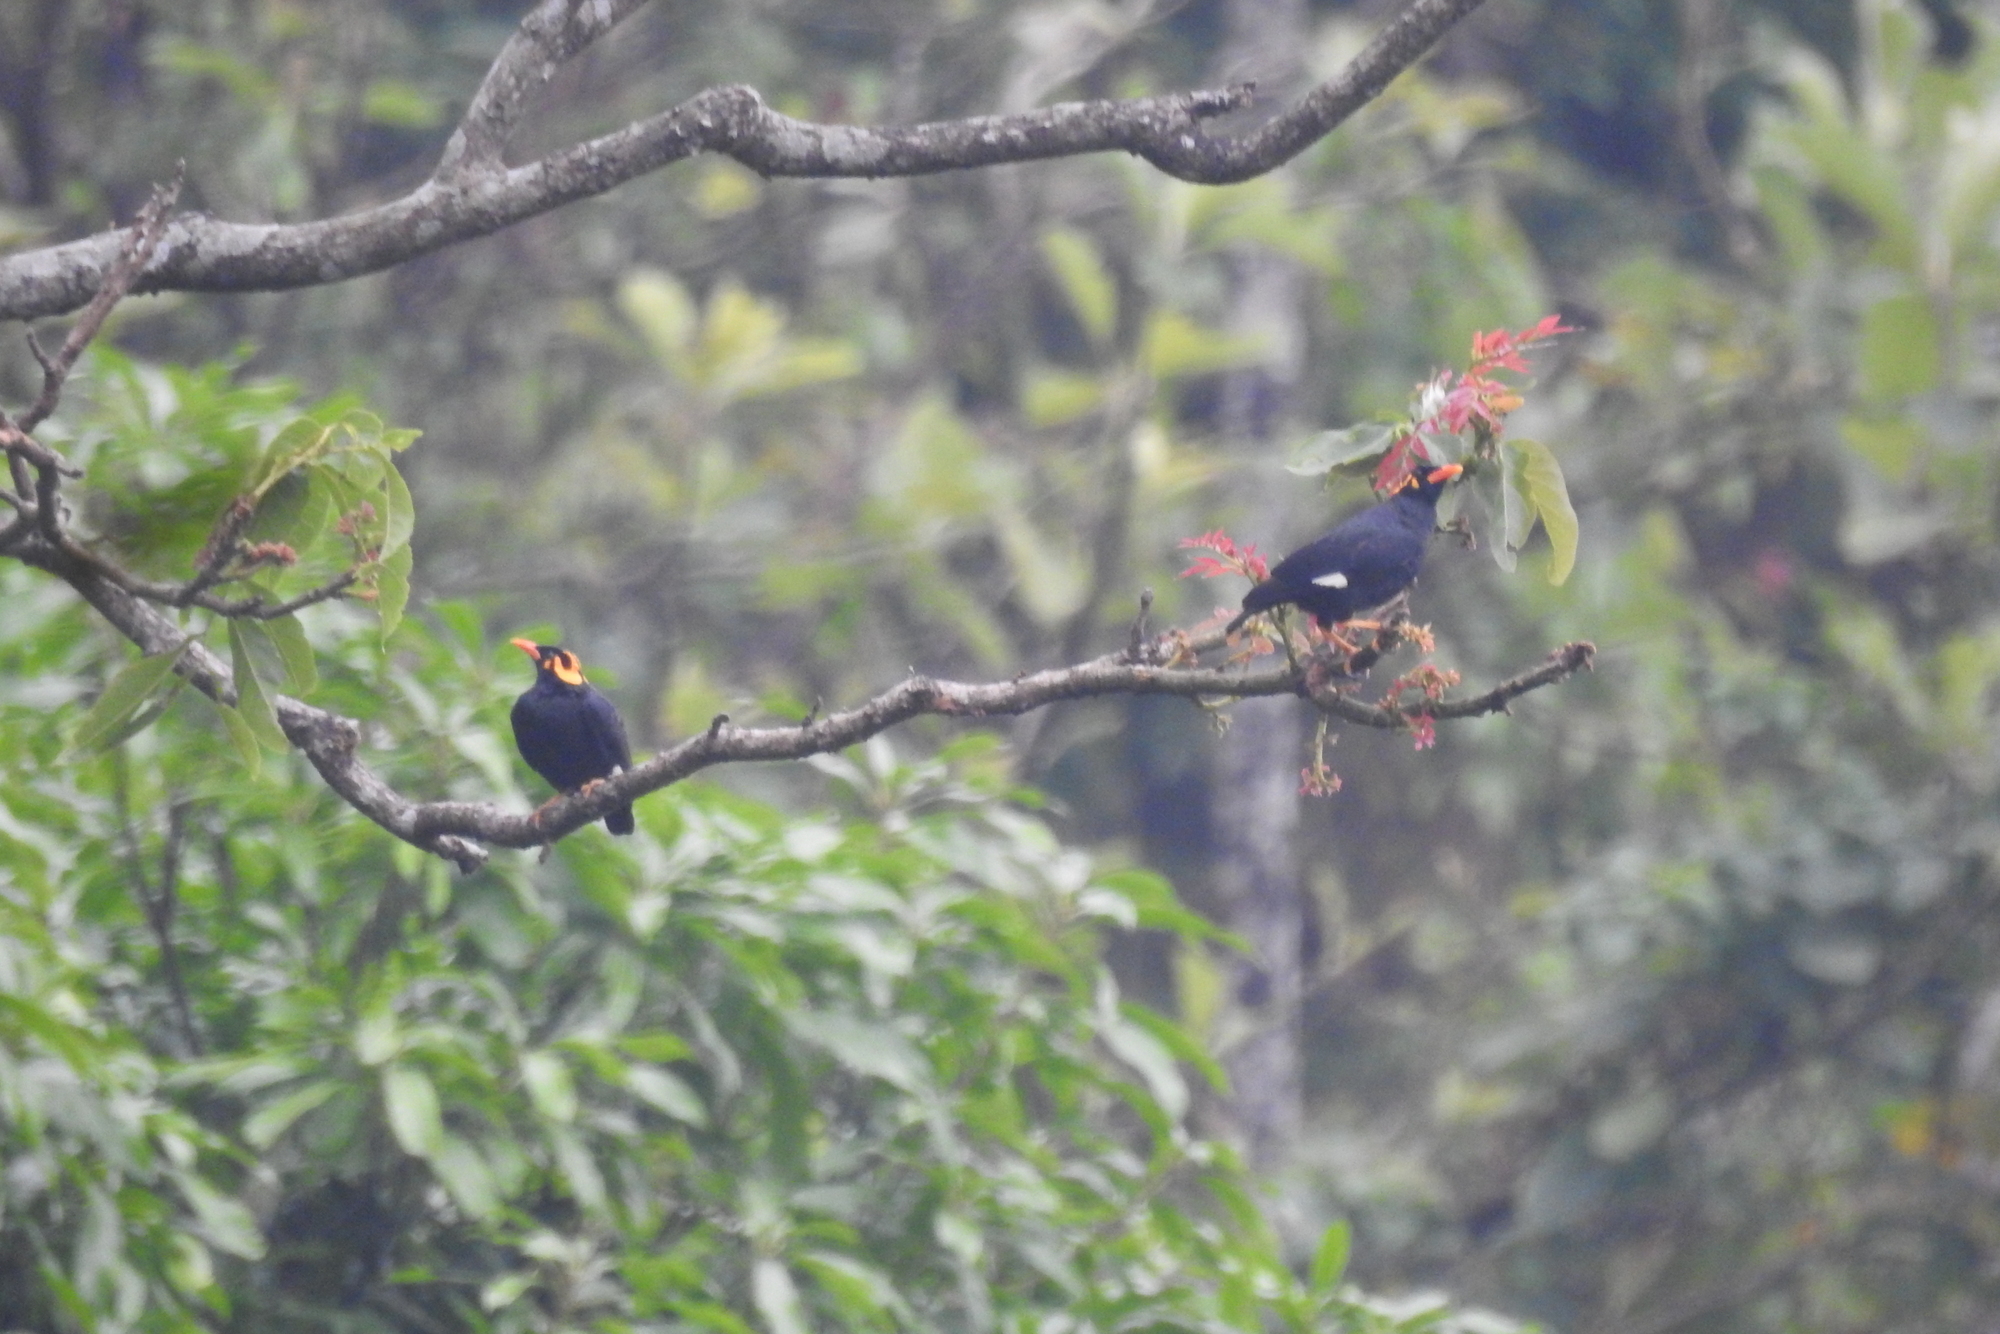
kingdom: Animalia
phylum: Chordata
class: Aves
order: Passeriformes
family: Sturnidae
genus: Gracula
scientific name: Gracula indica
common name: Southern hill myna
